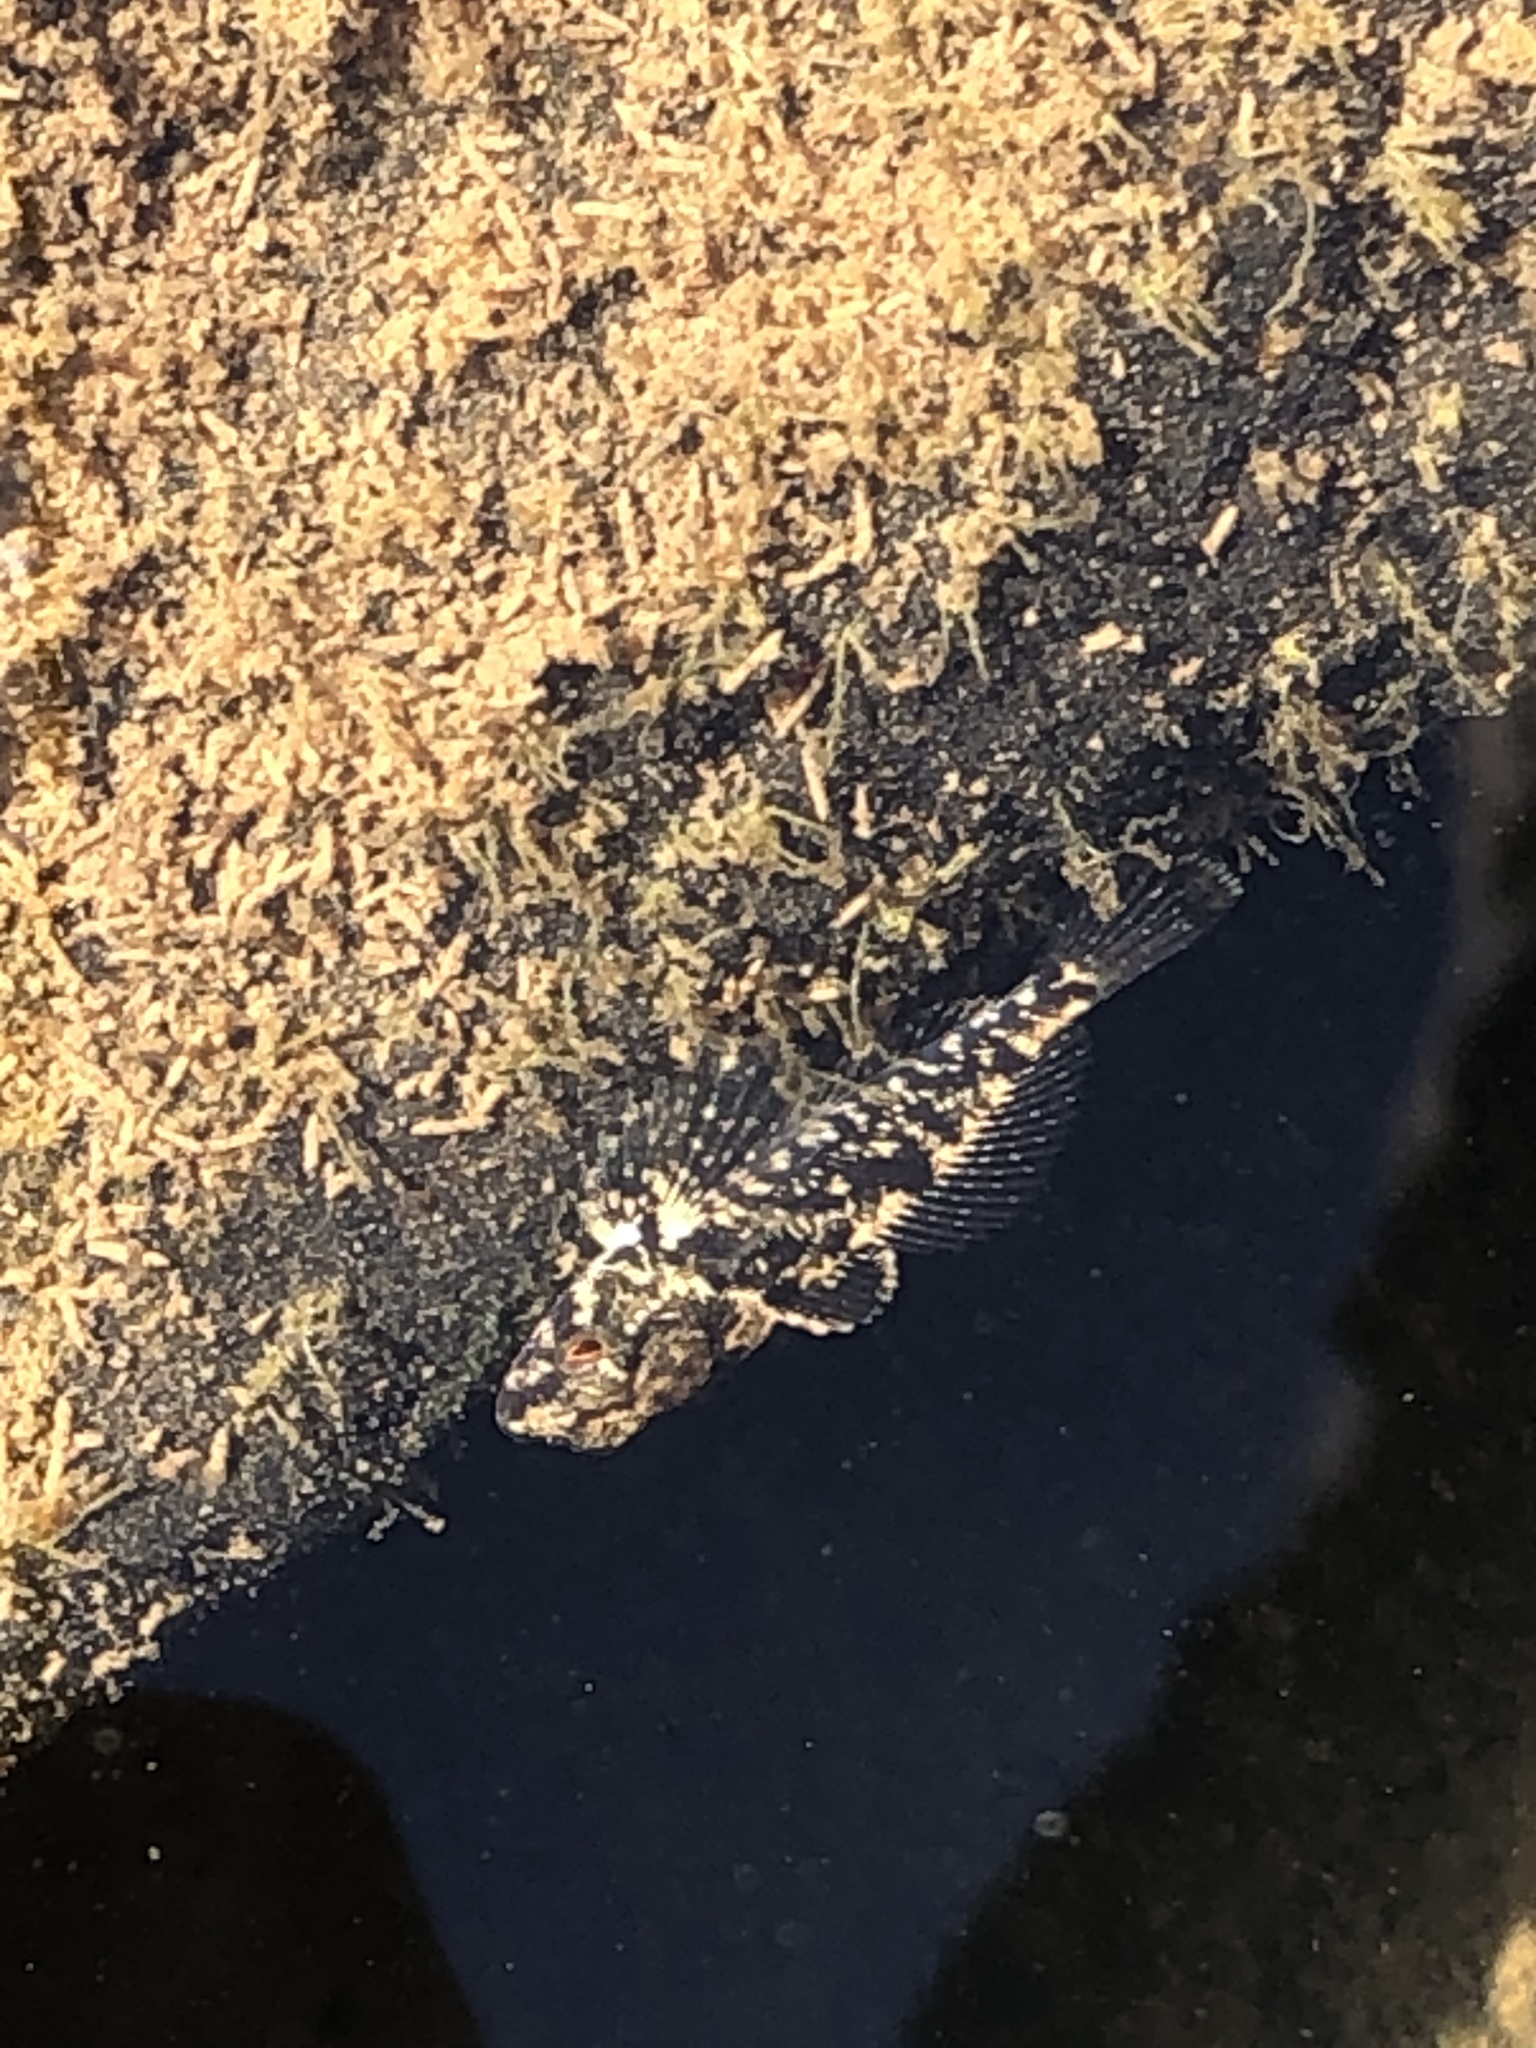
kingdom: Animalia
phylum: Chordata
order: Scorpaeniformes
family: Cottidae
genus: Cottus
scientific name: Cottus perplexus
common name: Reticulate sculpin
